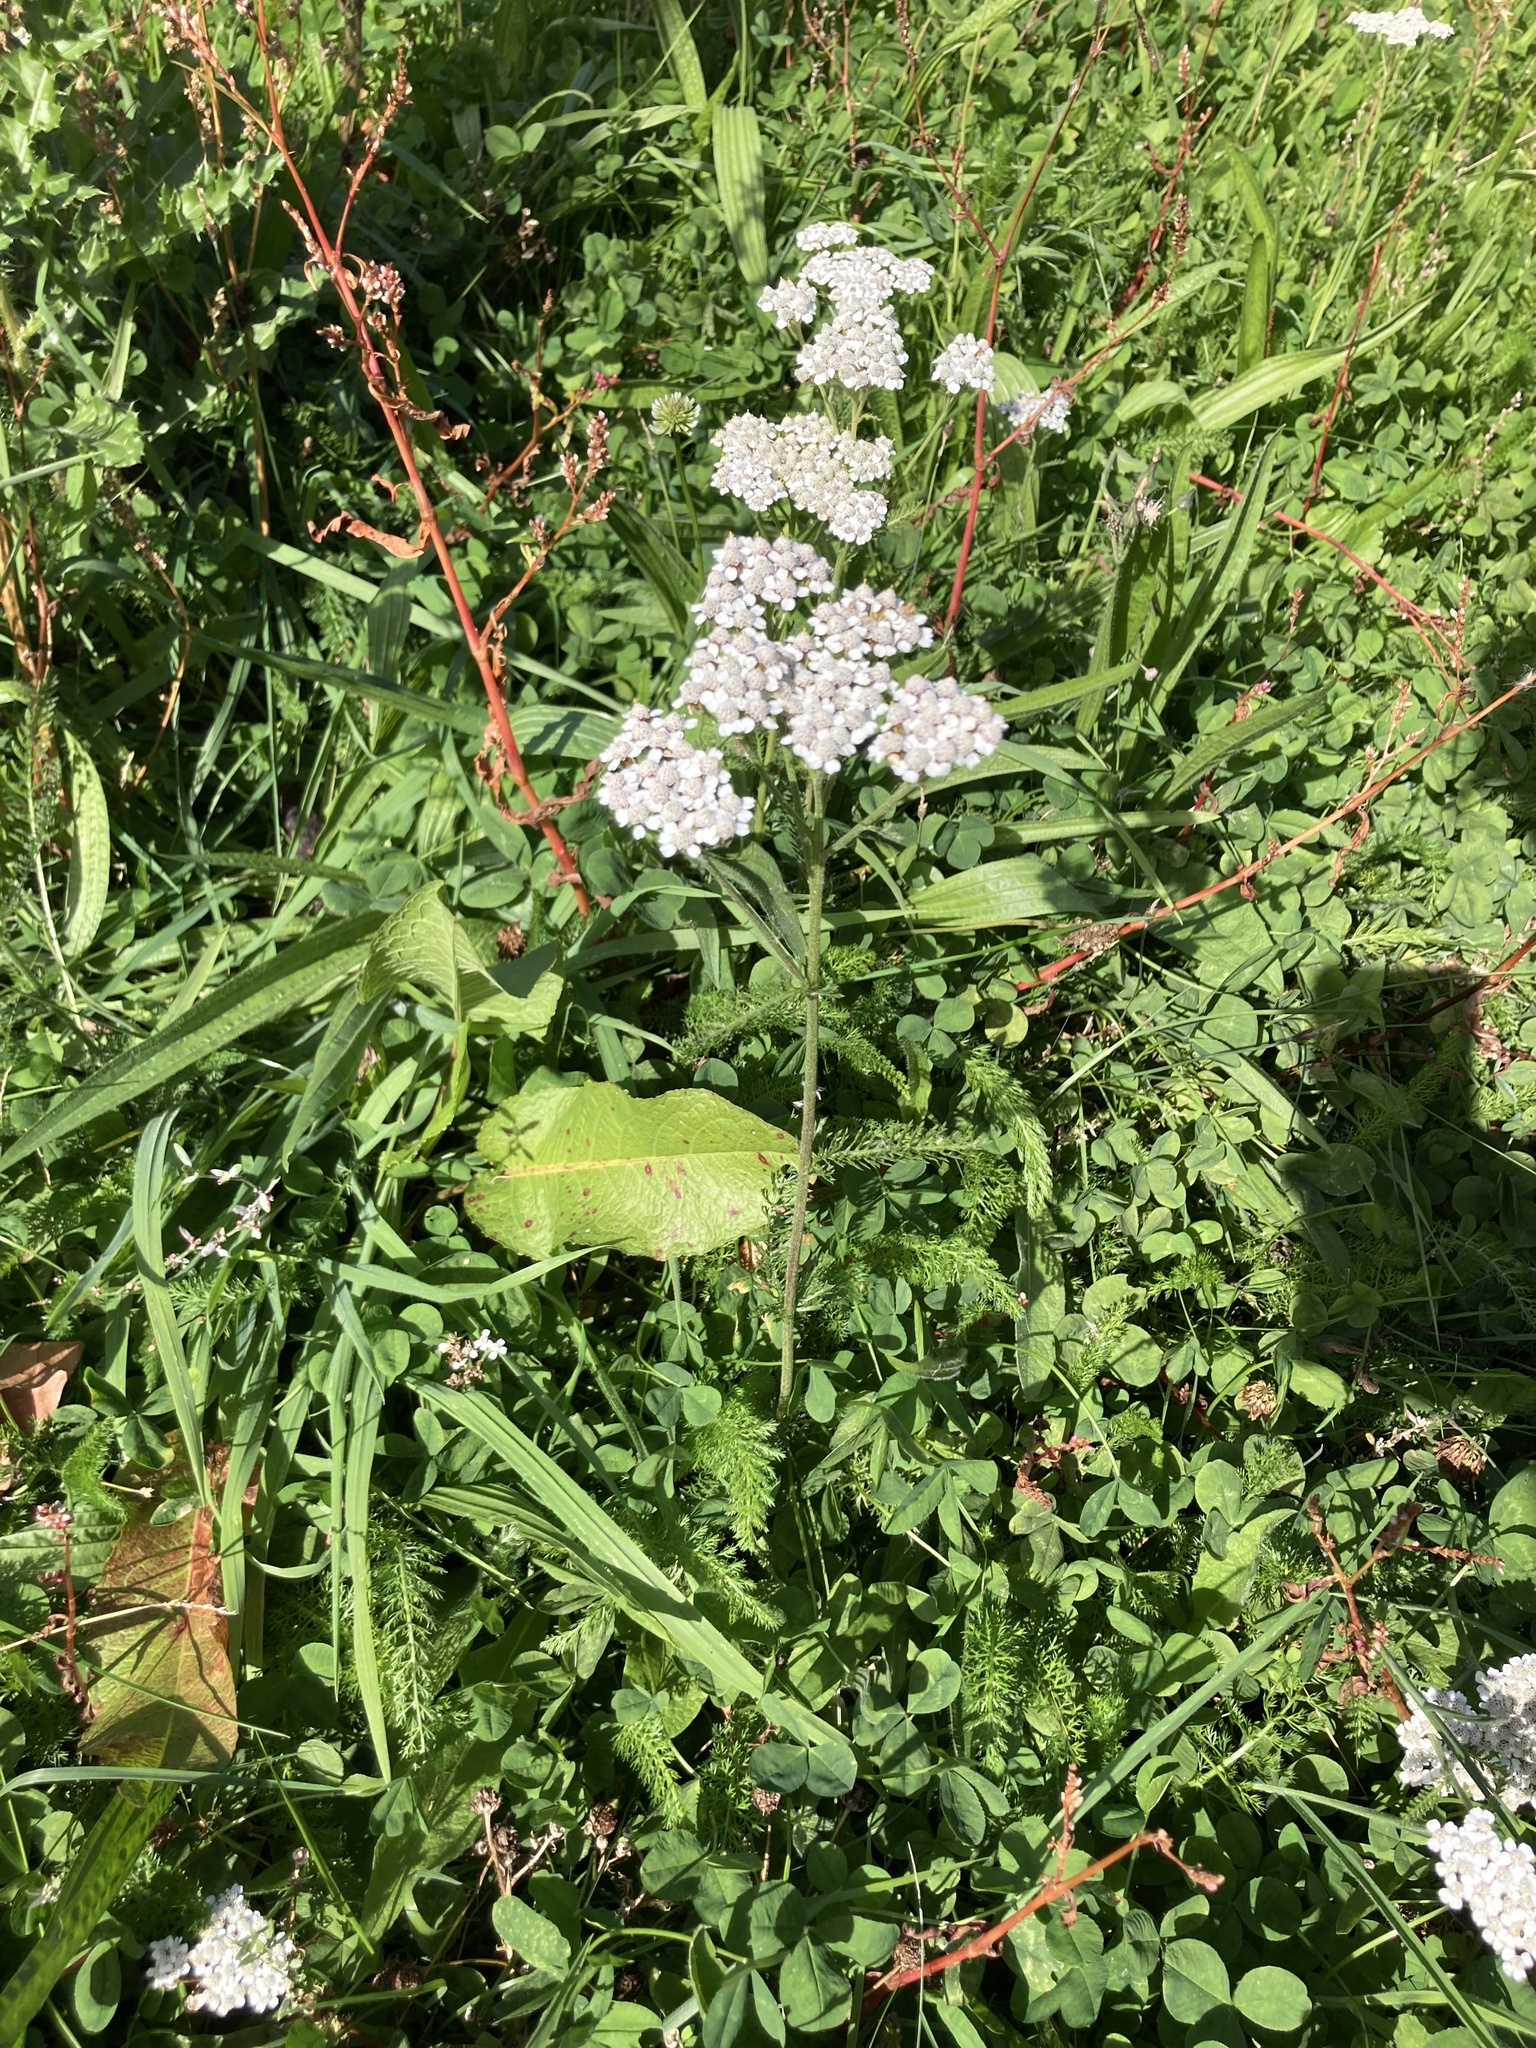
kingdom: Plantae
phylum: Tracheophyta
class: Magnoliopsida
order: Asterales
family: Asteraceae
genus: Achillea
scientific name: Achillea millefolium
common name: Yarrow
